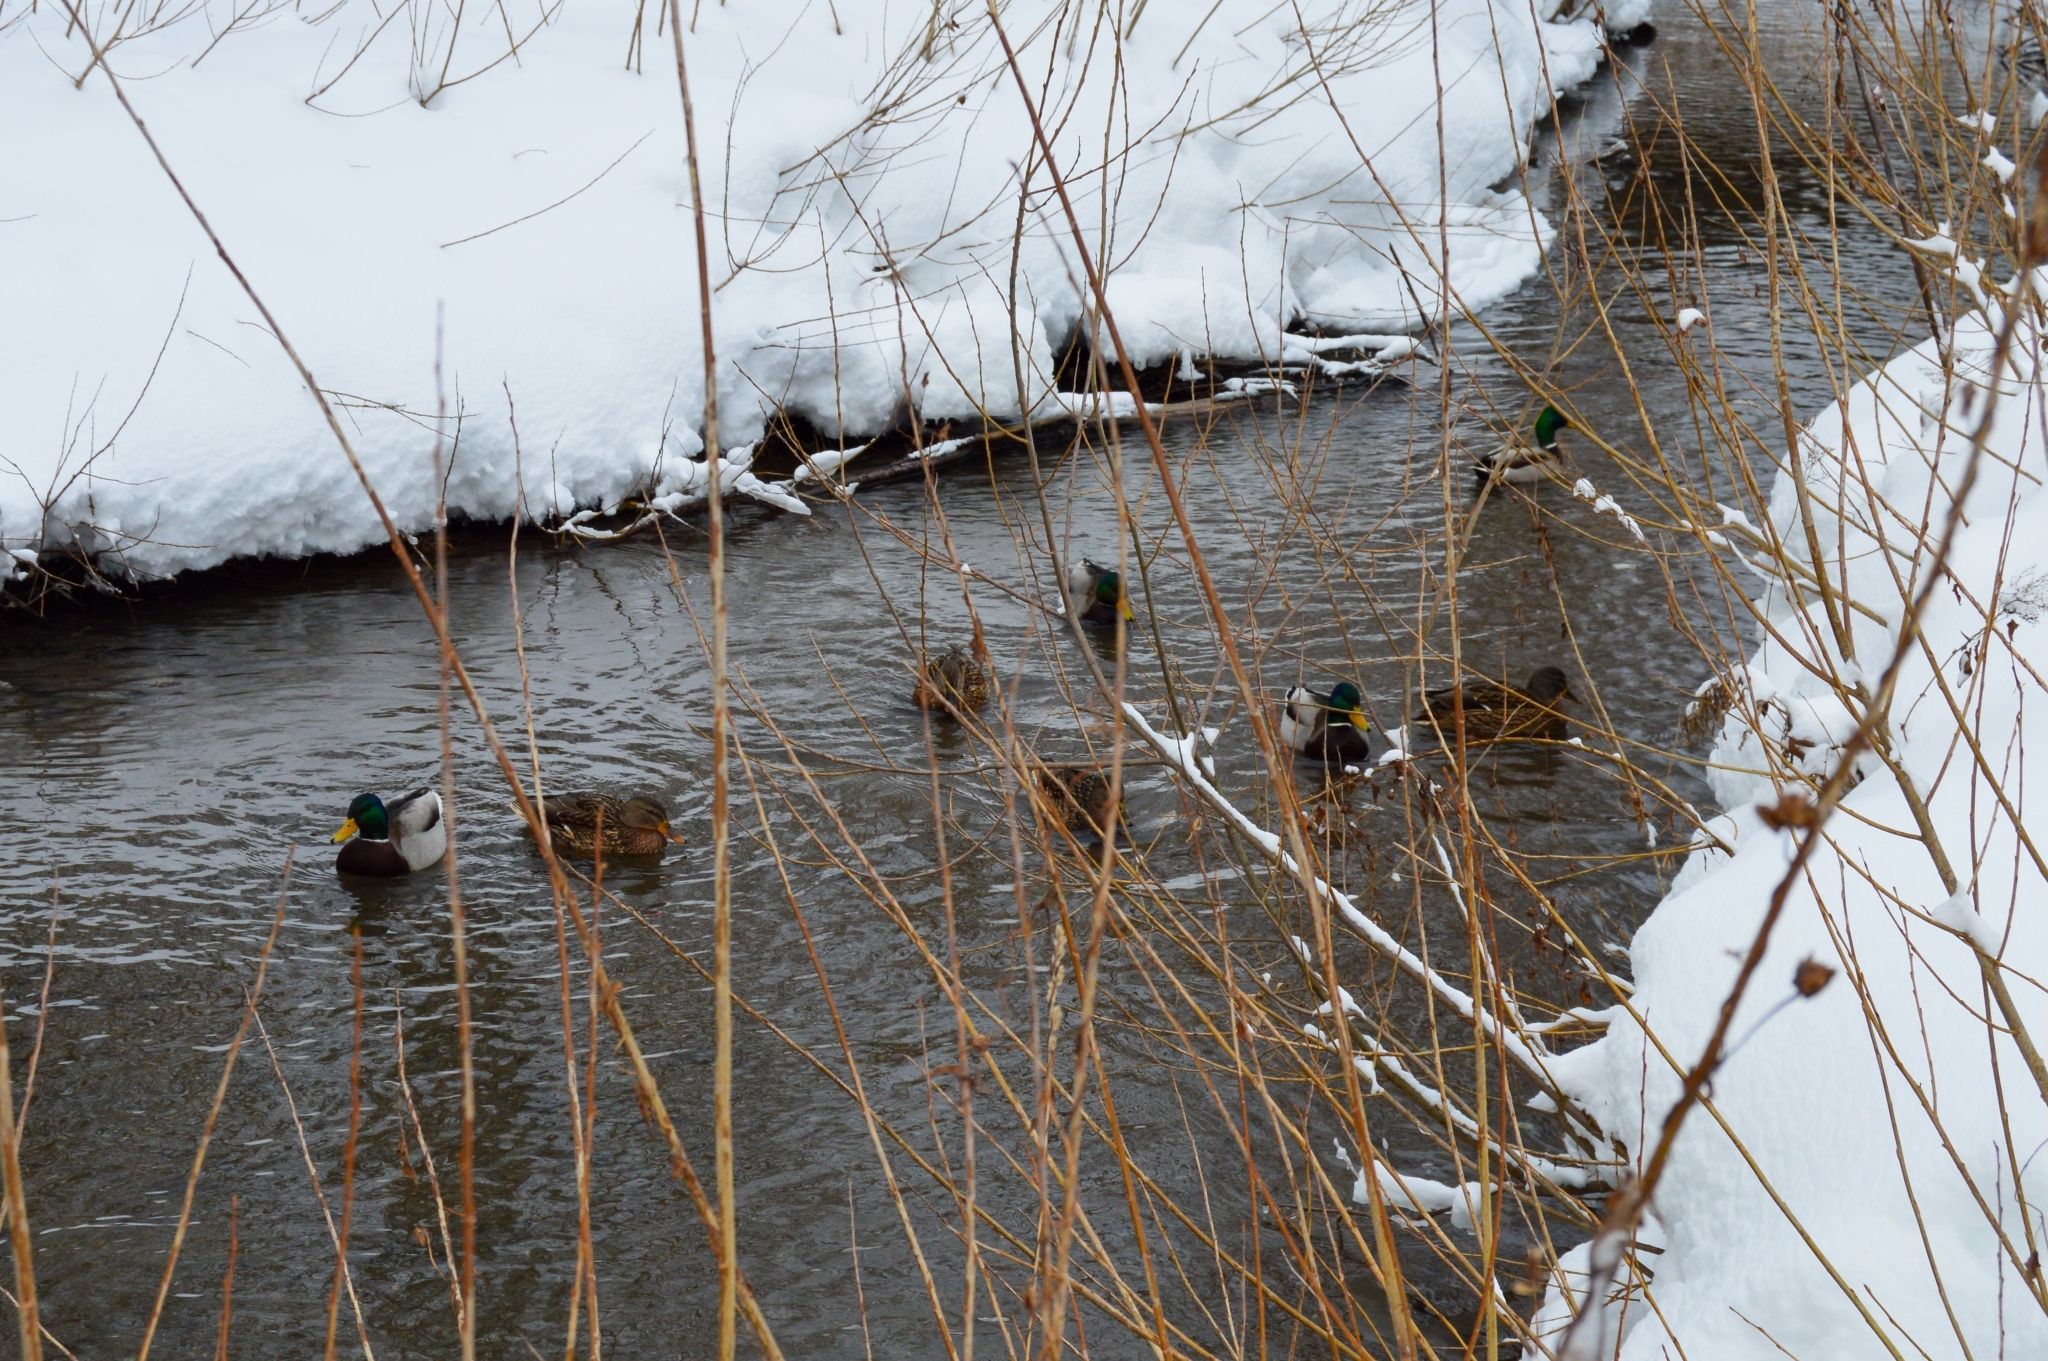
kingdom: Animalia
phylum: Chordata
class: Aves
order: Anseriformes
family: Anatidae
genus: Anas
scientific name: Anas platyrhynchos
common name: Mallard
